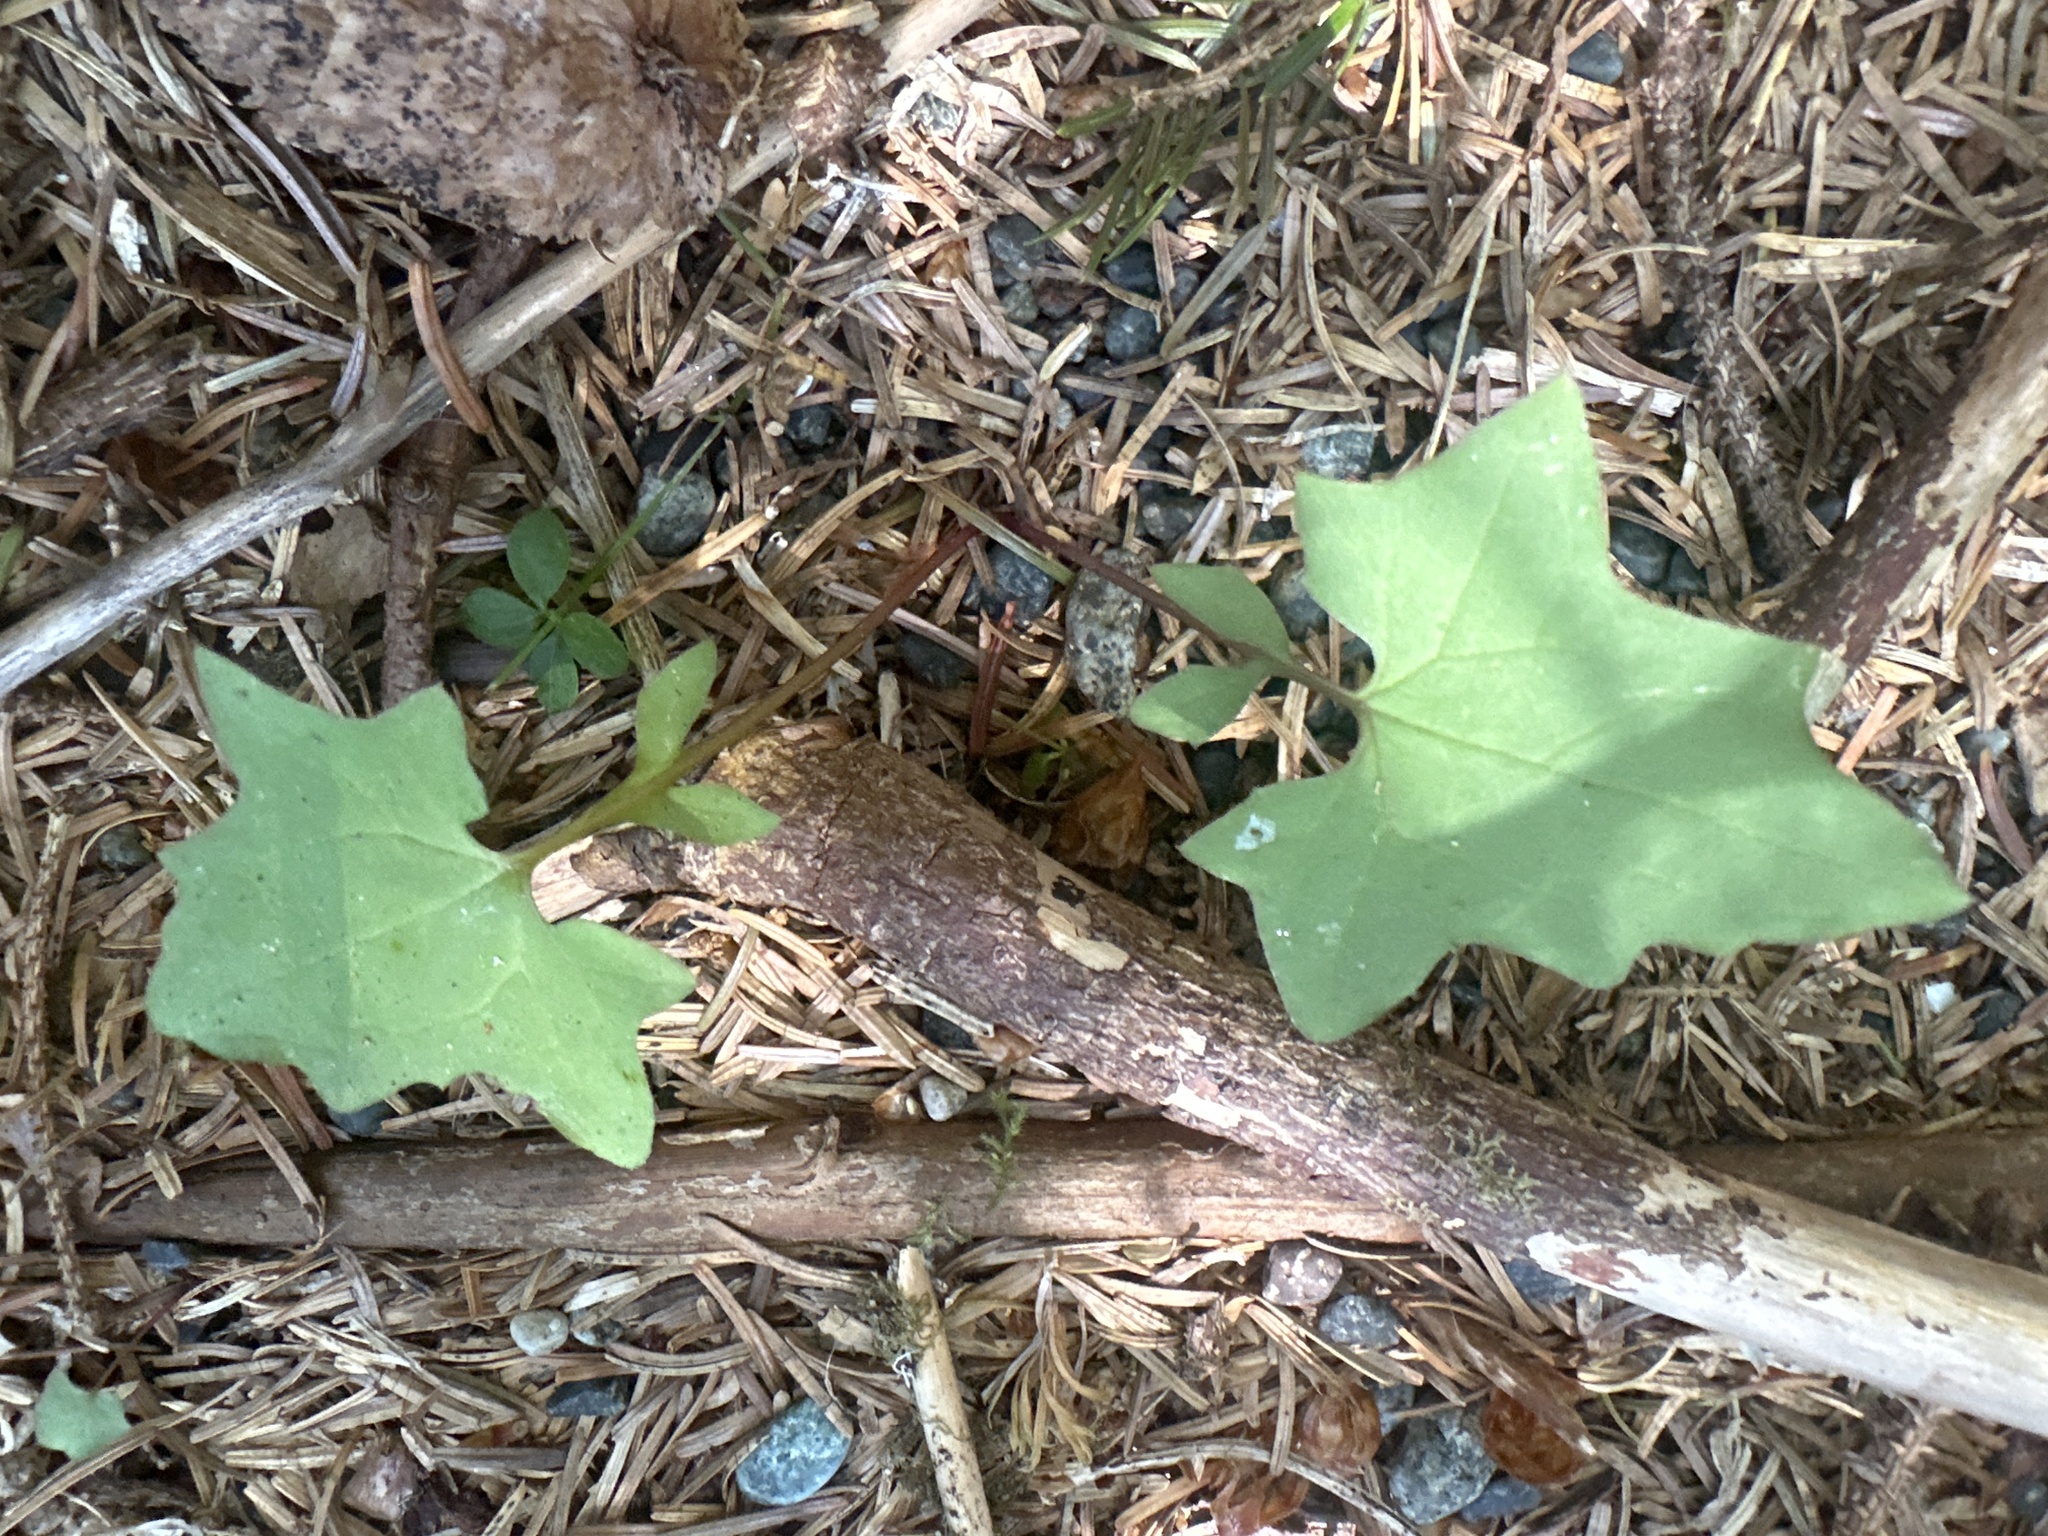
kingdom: Plantae
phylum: Tracheophyta
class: Magnoliopsida
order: Asterales
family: Asteraceae
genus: Mycelis
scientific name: Mycelis muralis
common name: Wall lettuce
